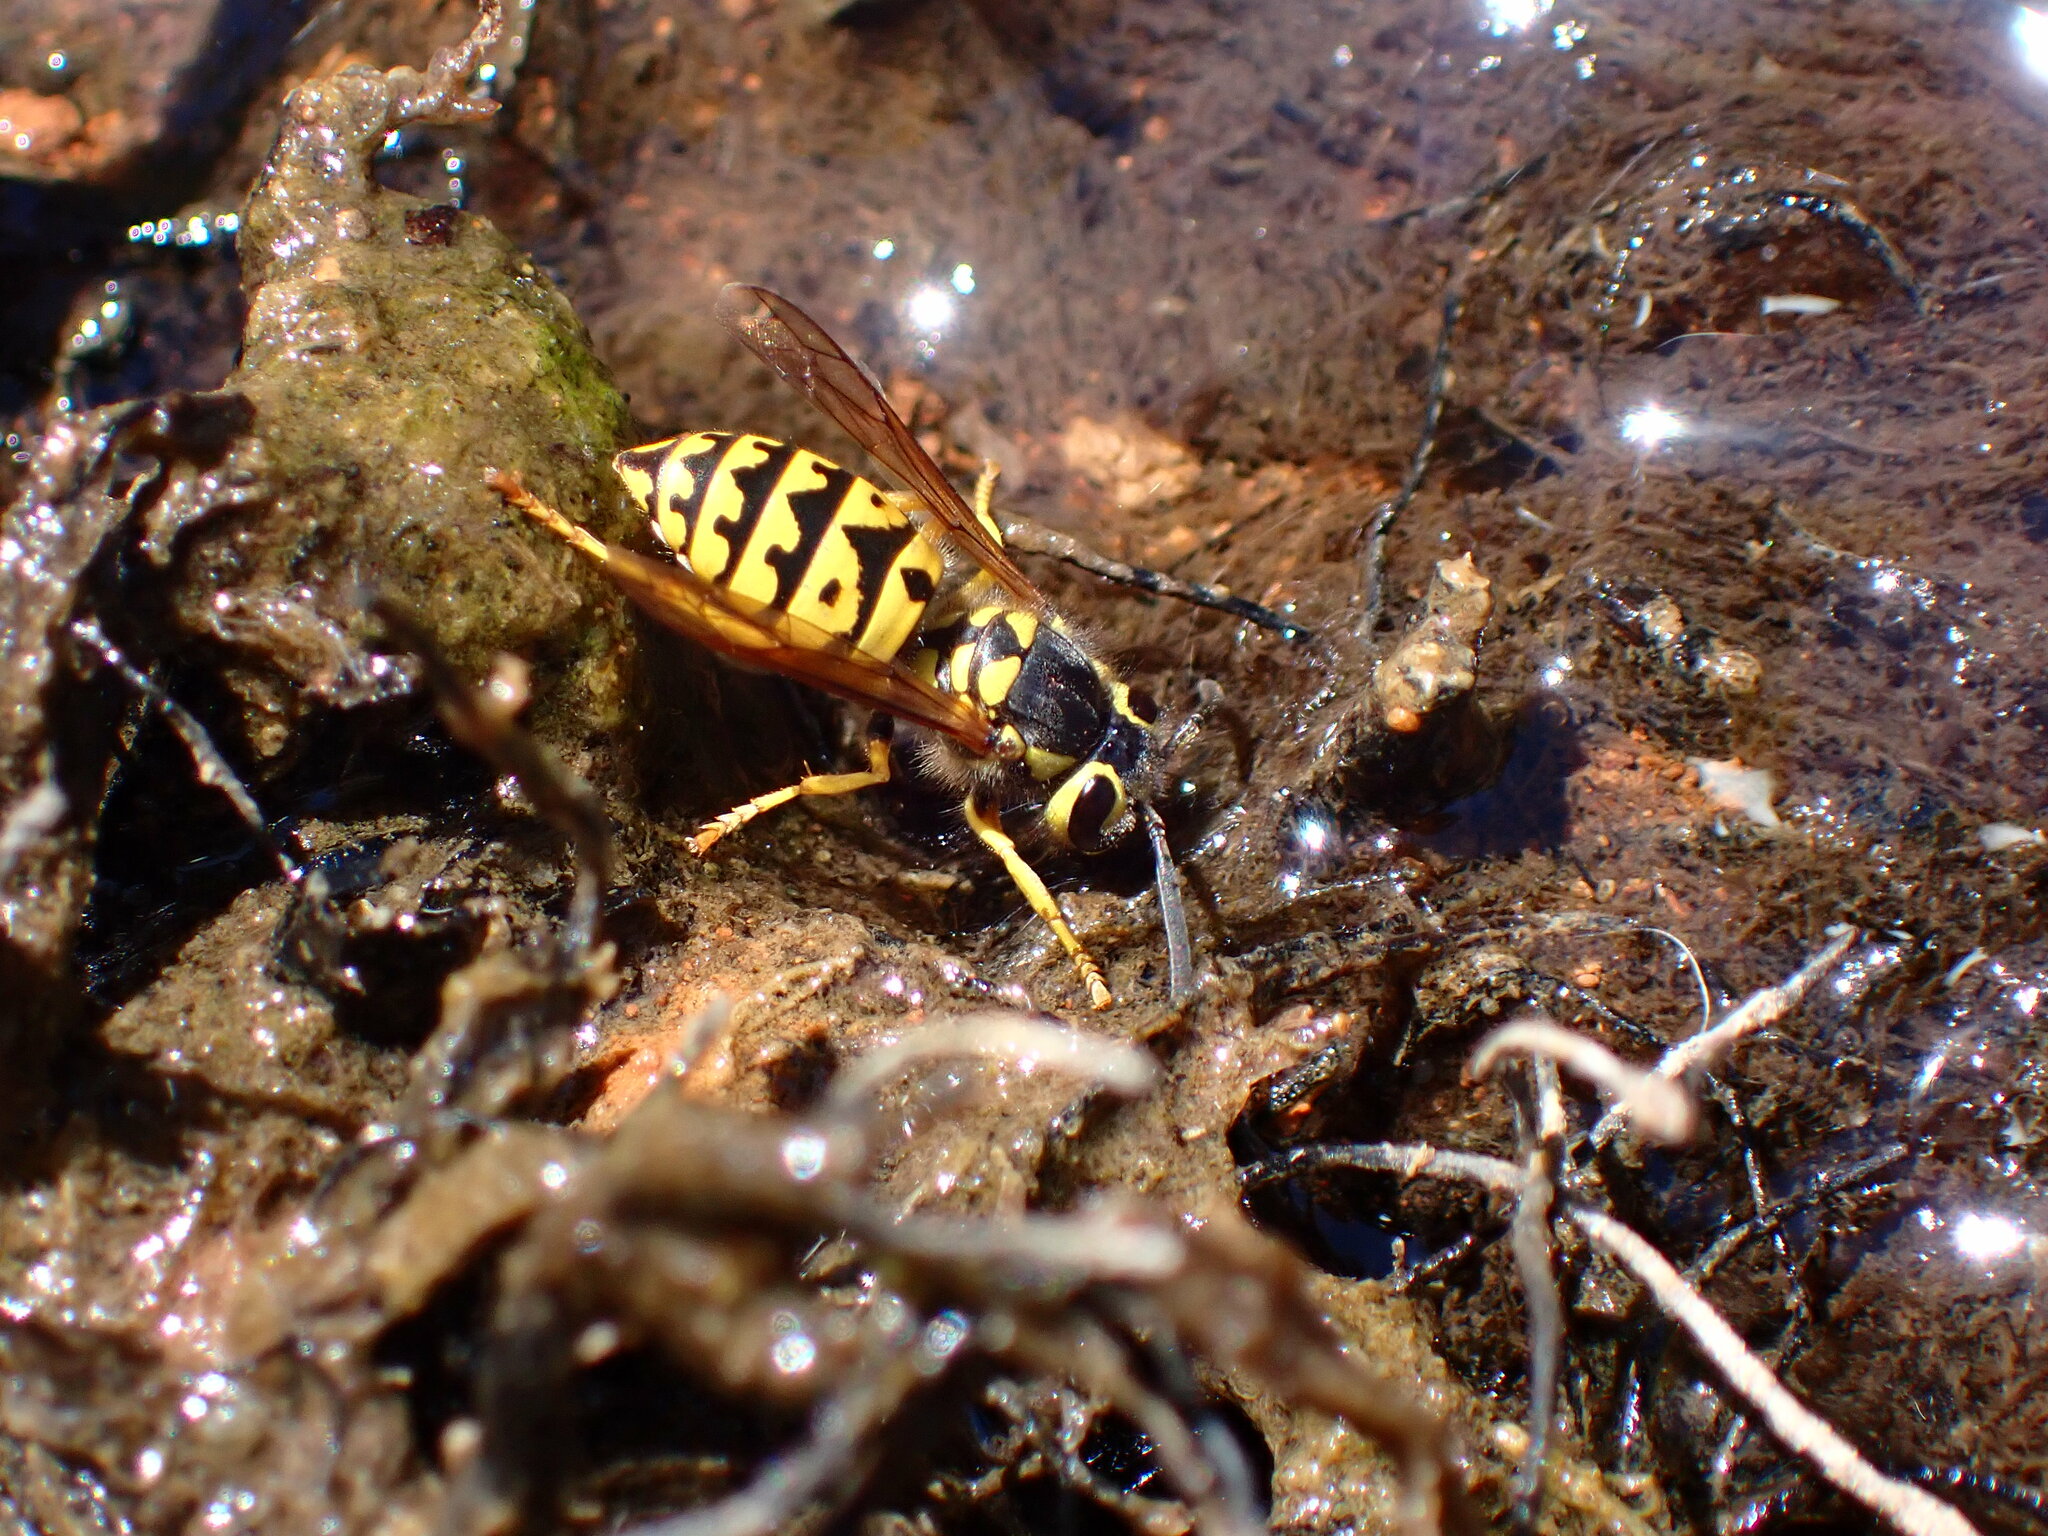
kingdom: Animalia
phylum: Arthropoda
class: Insecta
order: Hymenoptera
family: Vespidae
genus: Vespula
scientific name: Vespula pensylvanica
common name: Western yellowjacket
